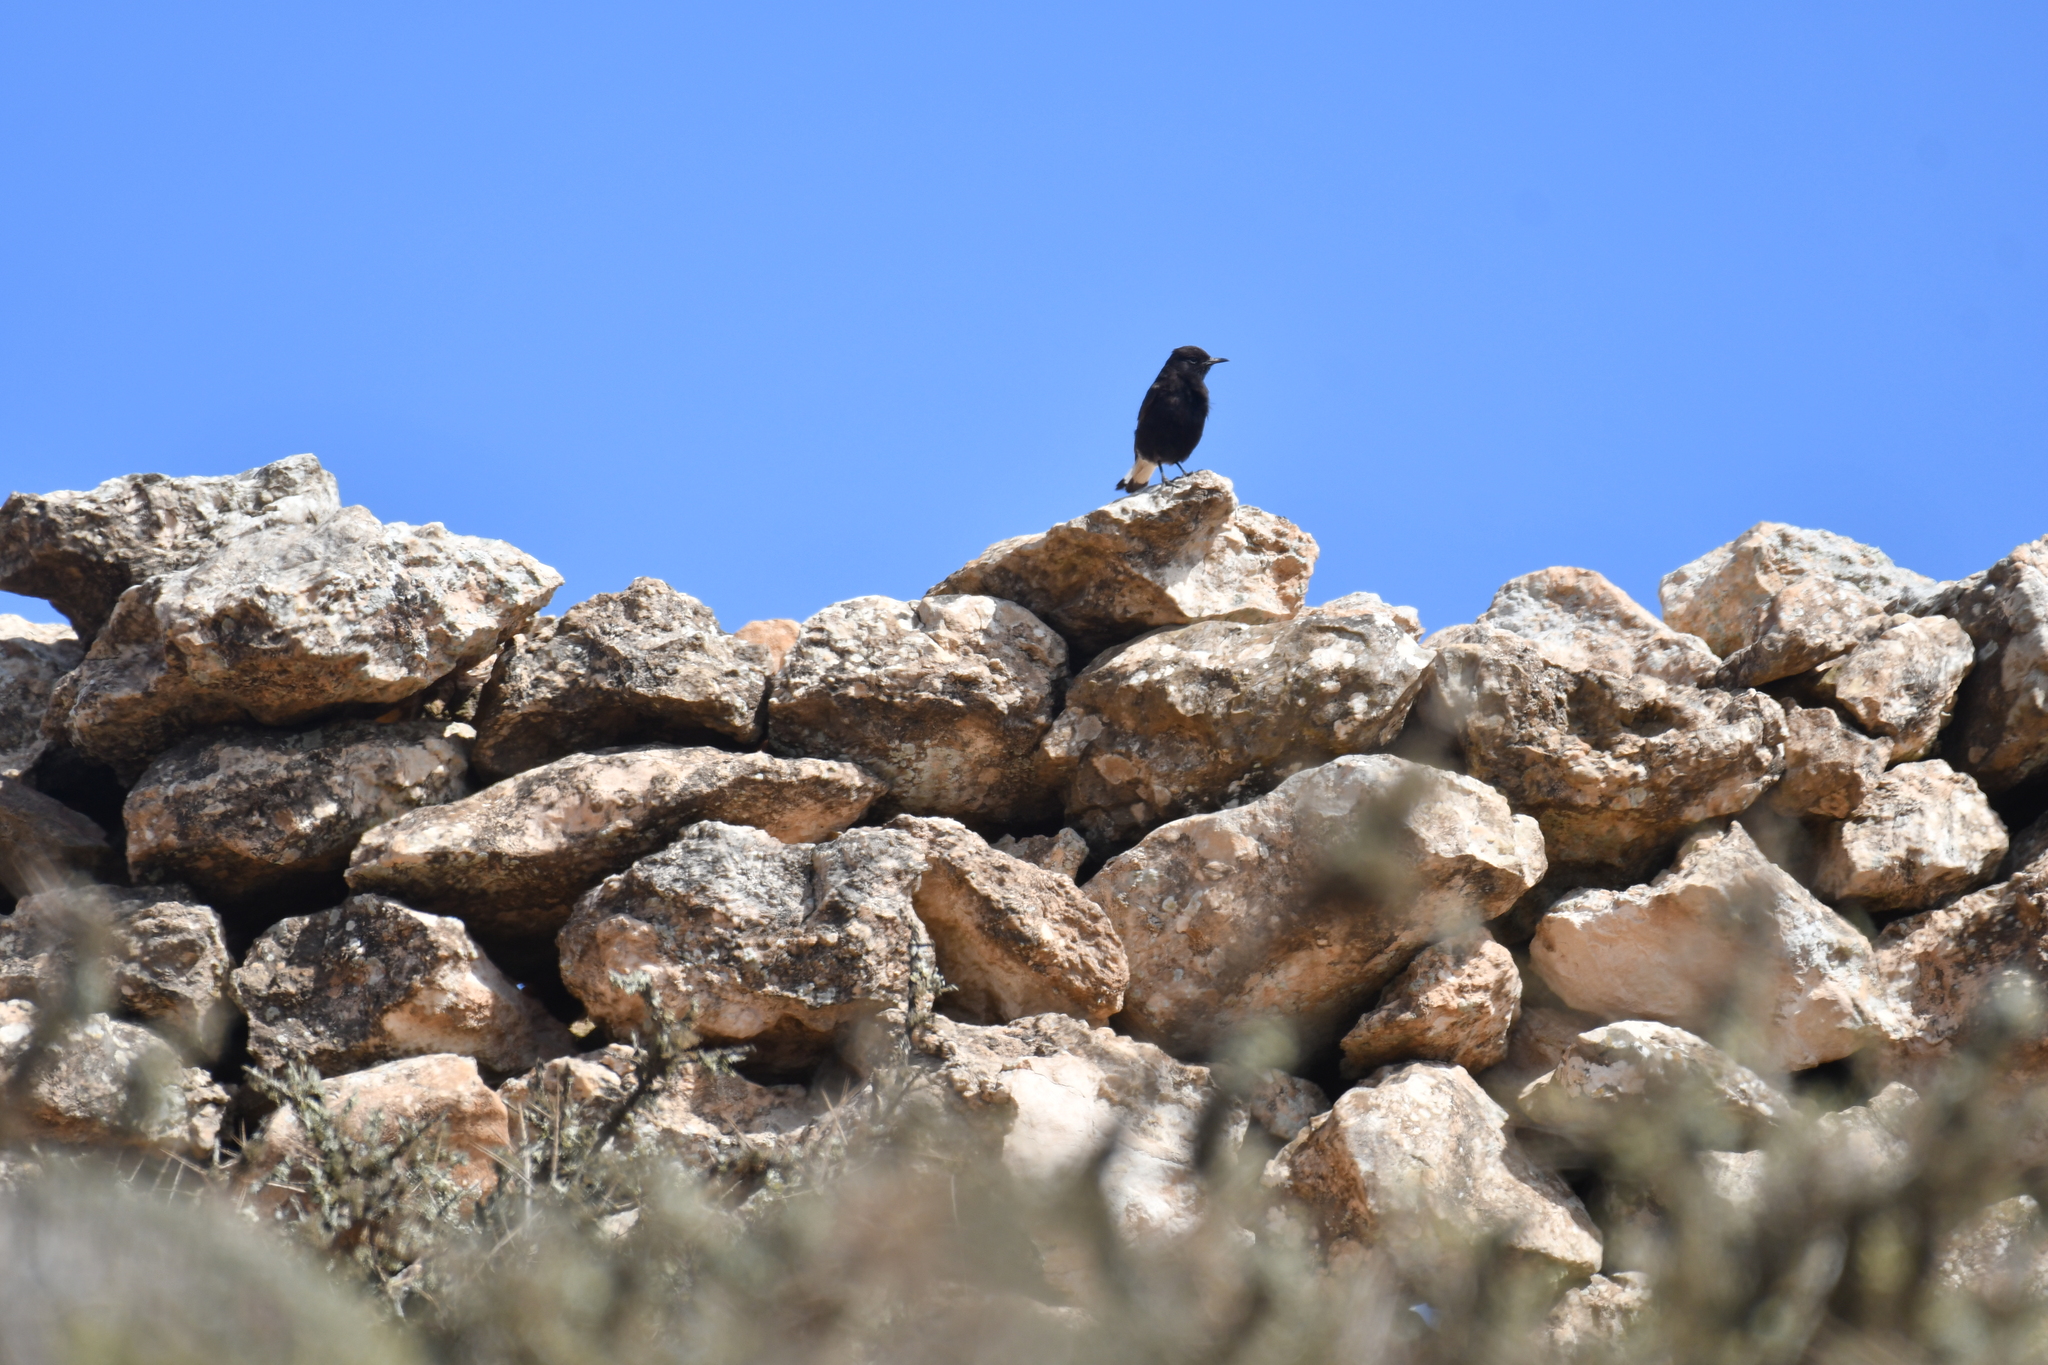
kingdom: Animalia
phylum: Chordata
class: Aves
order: Passeriformes
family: Muscicapidae
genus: Oenanthe
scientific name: Oenanthe leucura
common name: Black wheatear
